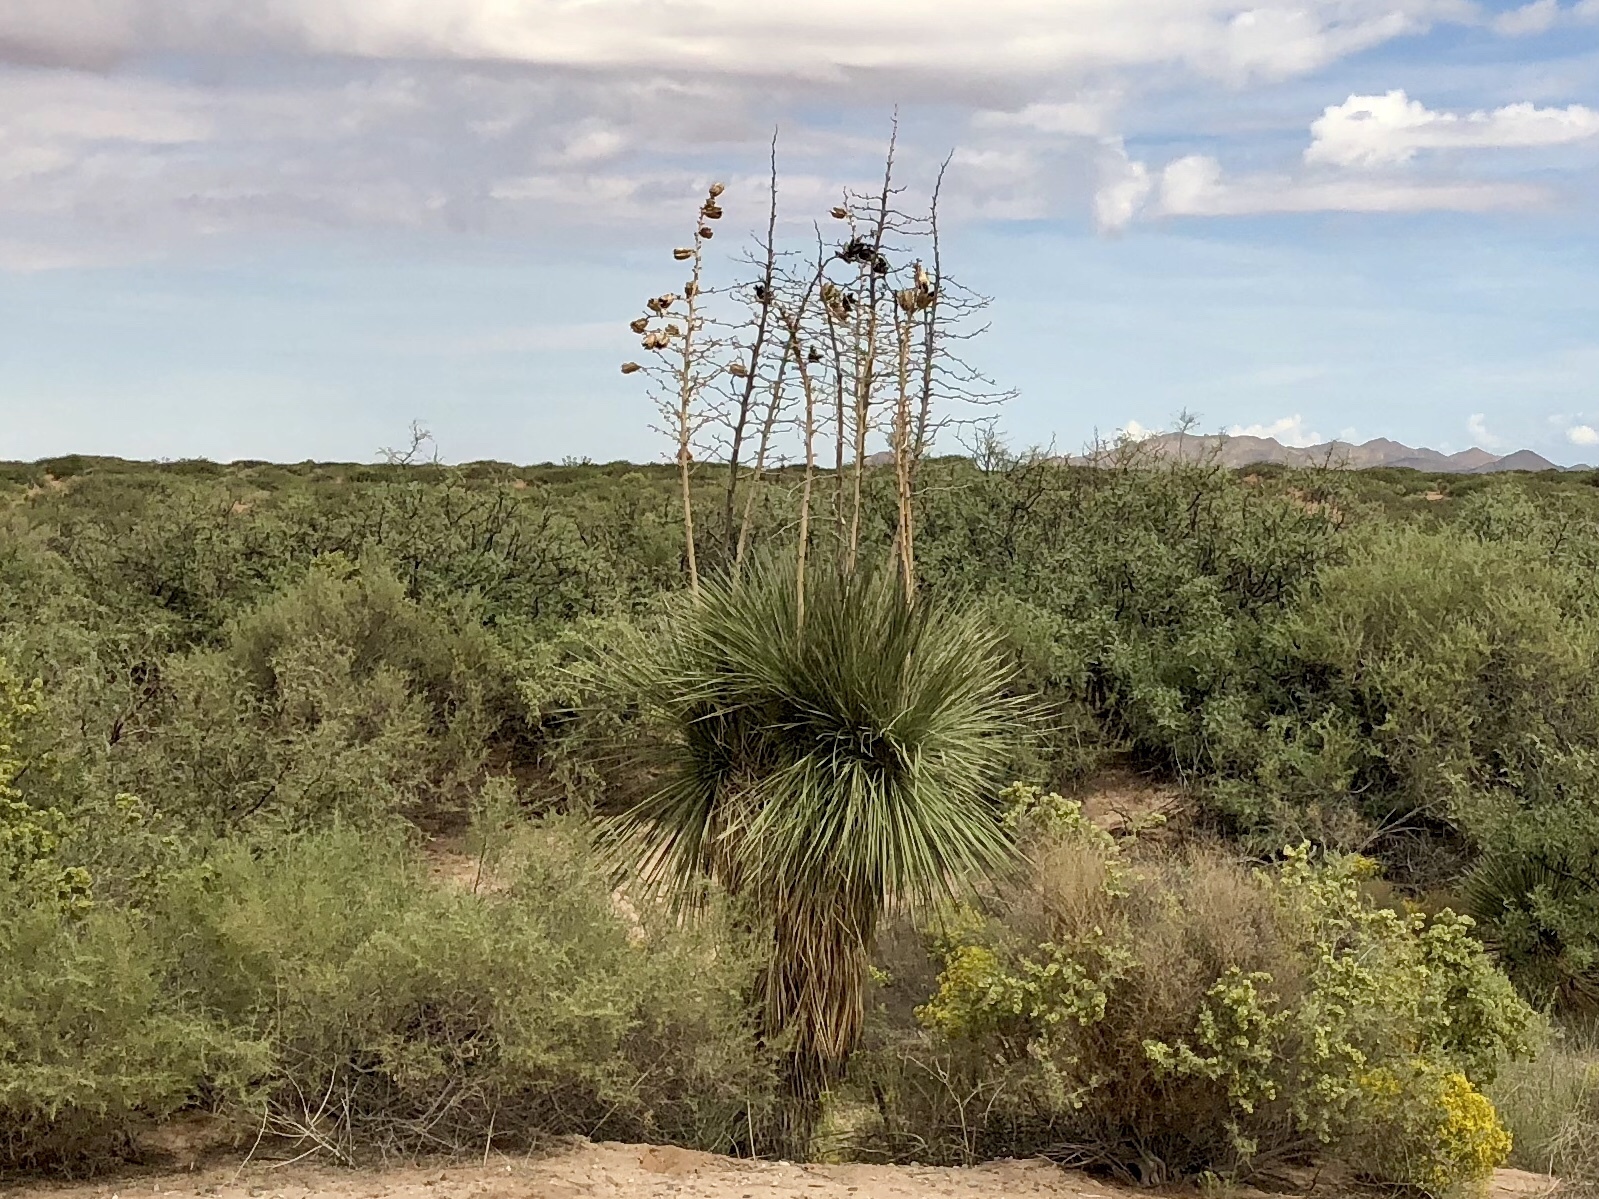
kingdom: Plantae
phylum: Tracheophyta
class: Liliopsida
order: Asparagales
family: Asparagaceae
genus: Yucca
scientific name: Yucca elata
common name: Palmella
